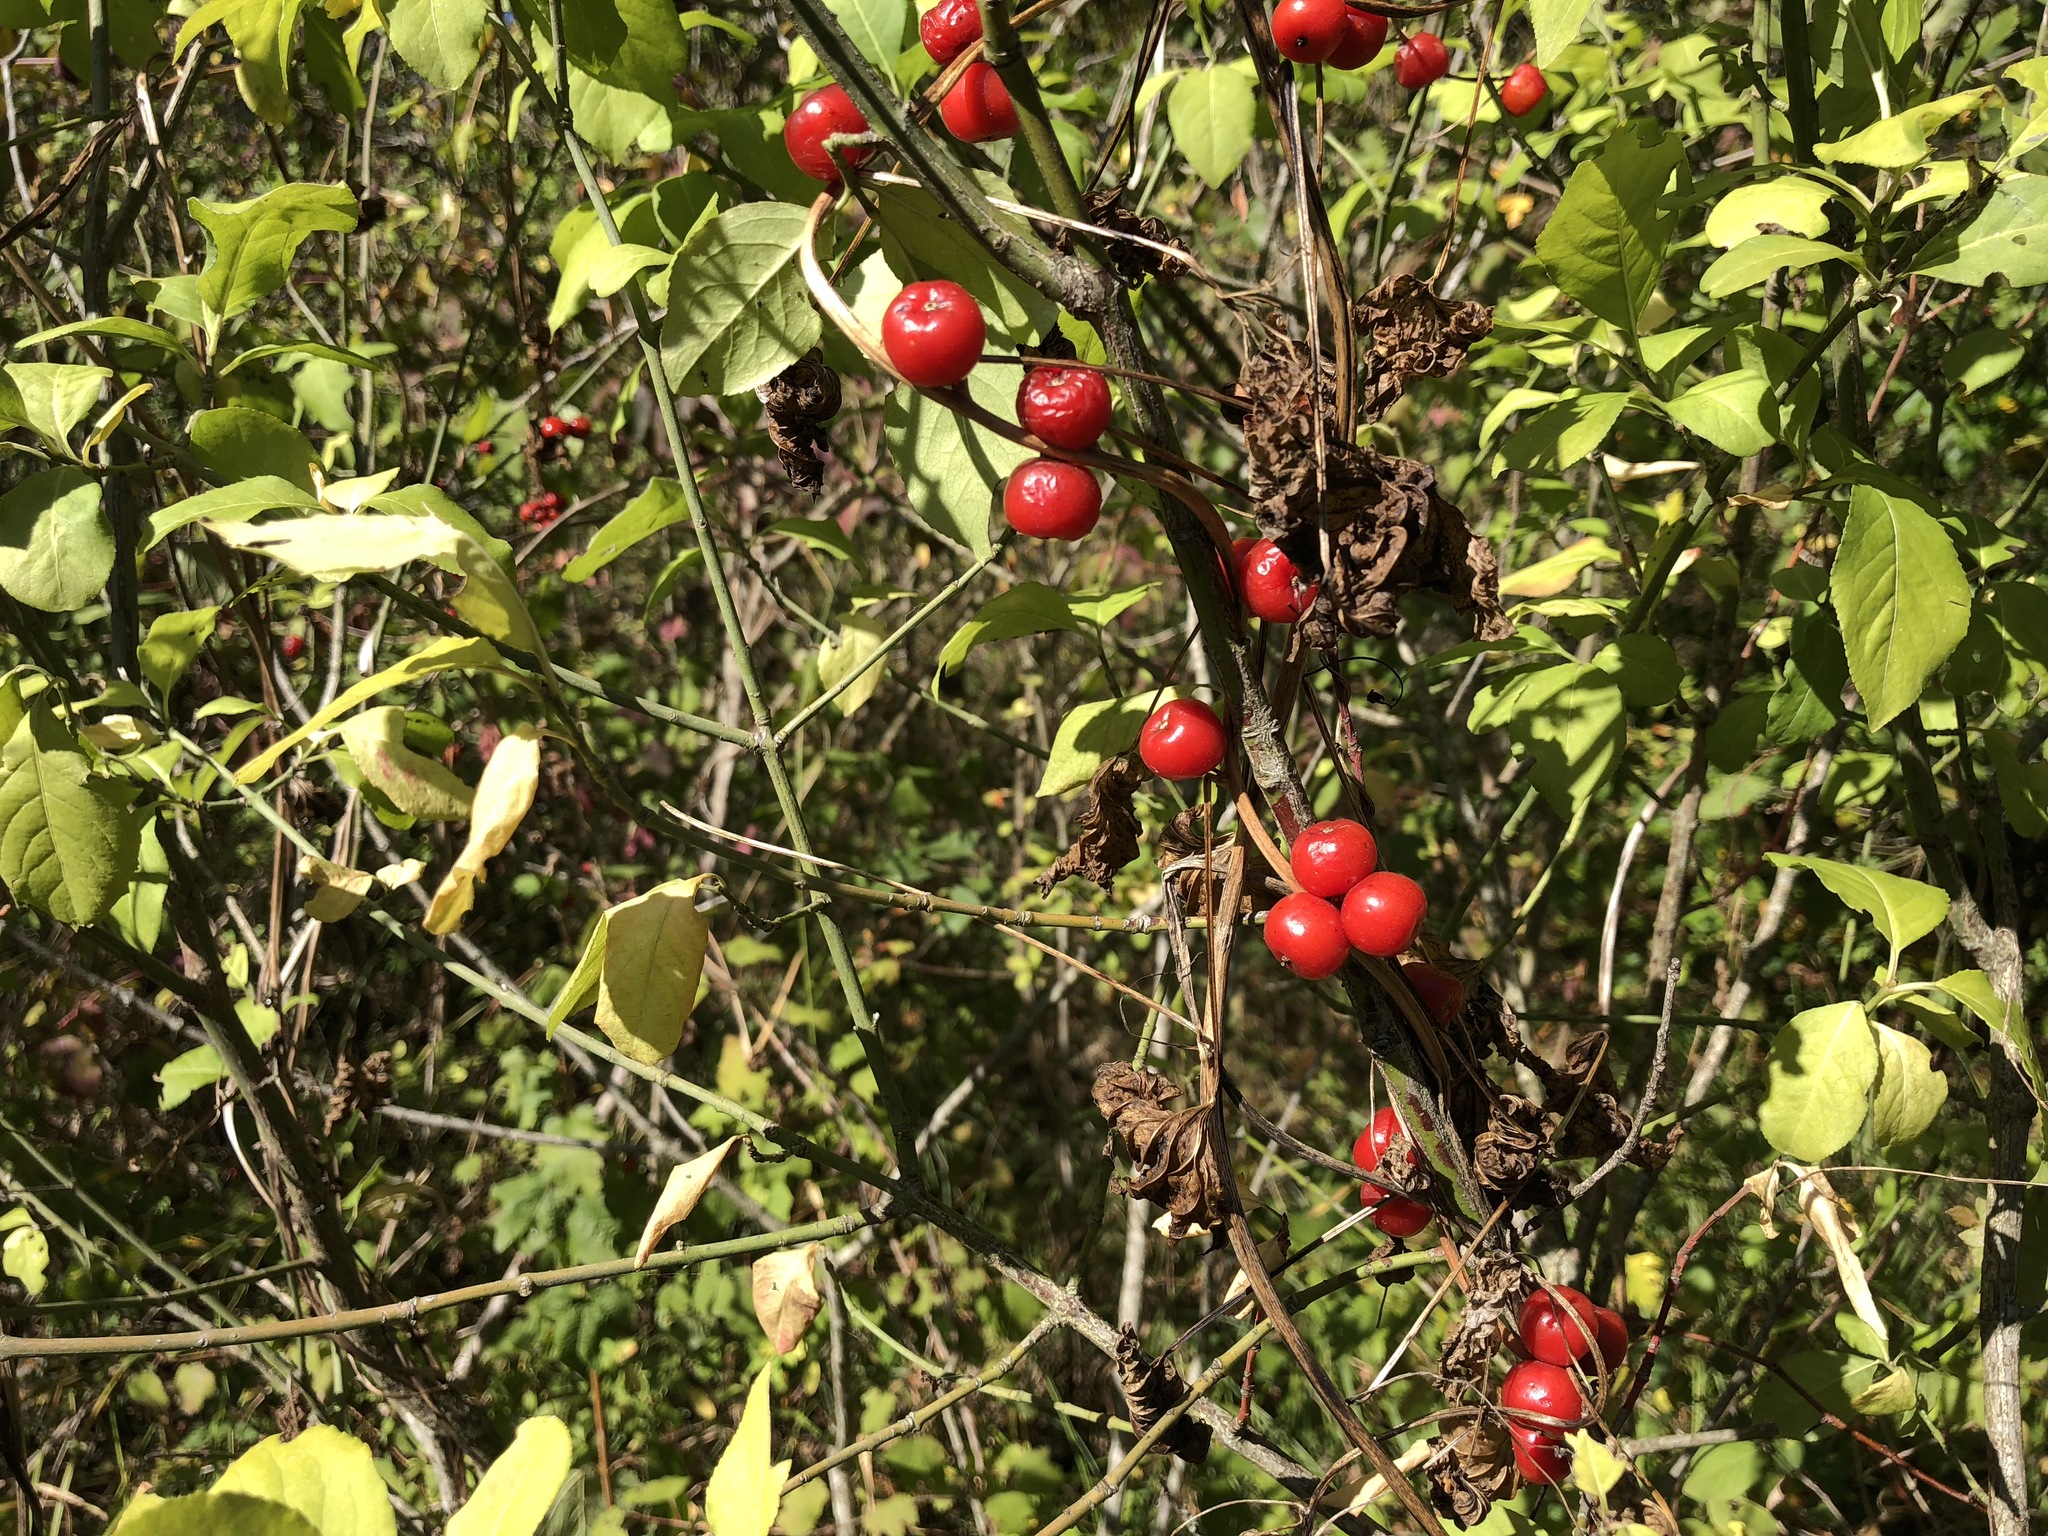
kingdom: Plantae
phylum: Tracheophyta
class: Liliopsida
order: Dioscoreales
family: Dioscoreaceae
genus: Dioscorea
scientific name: Dioscorea communis
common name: Black-bindweed
